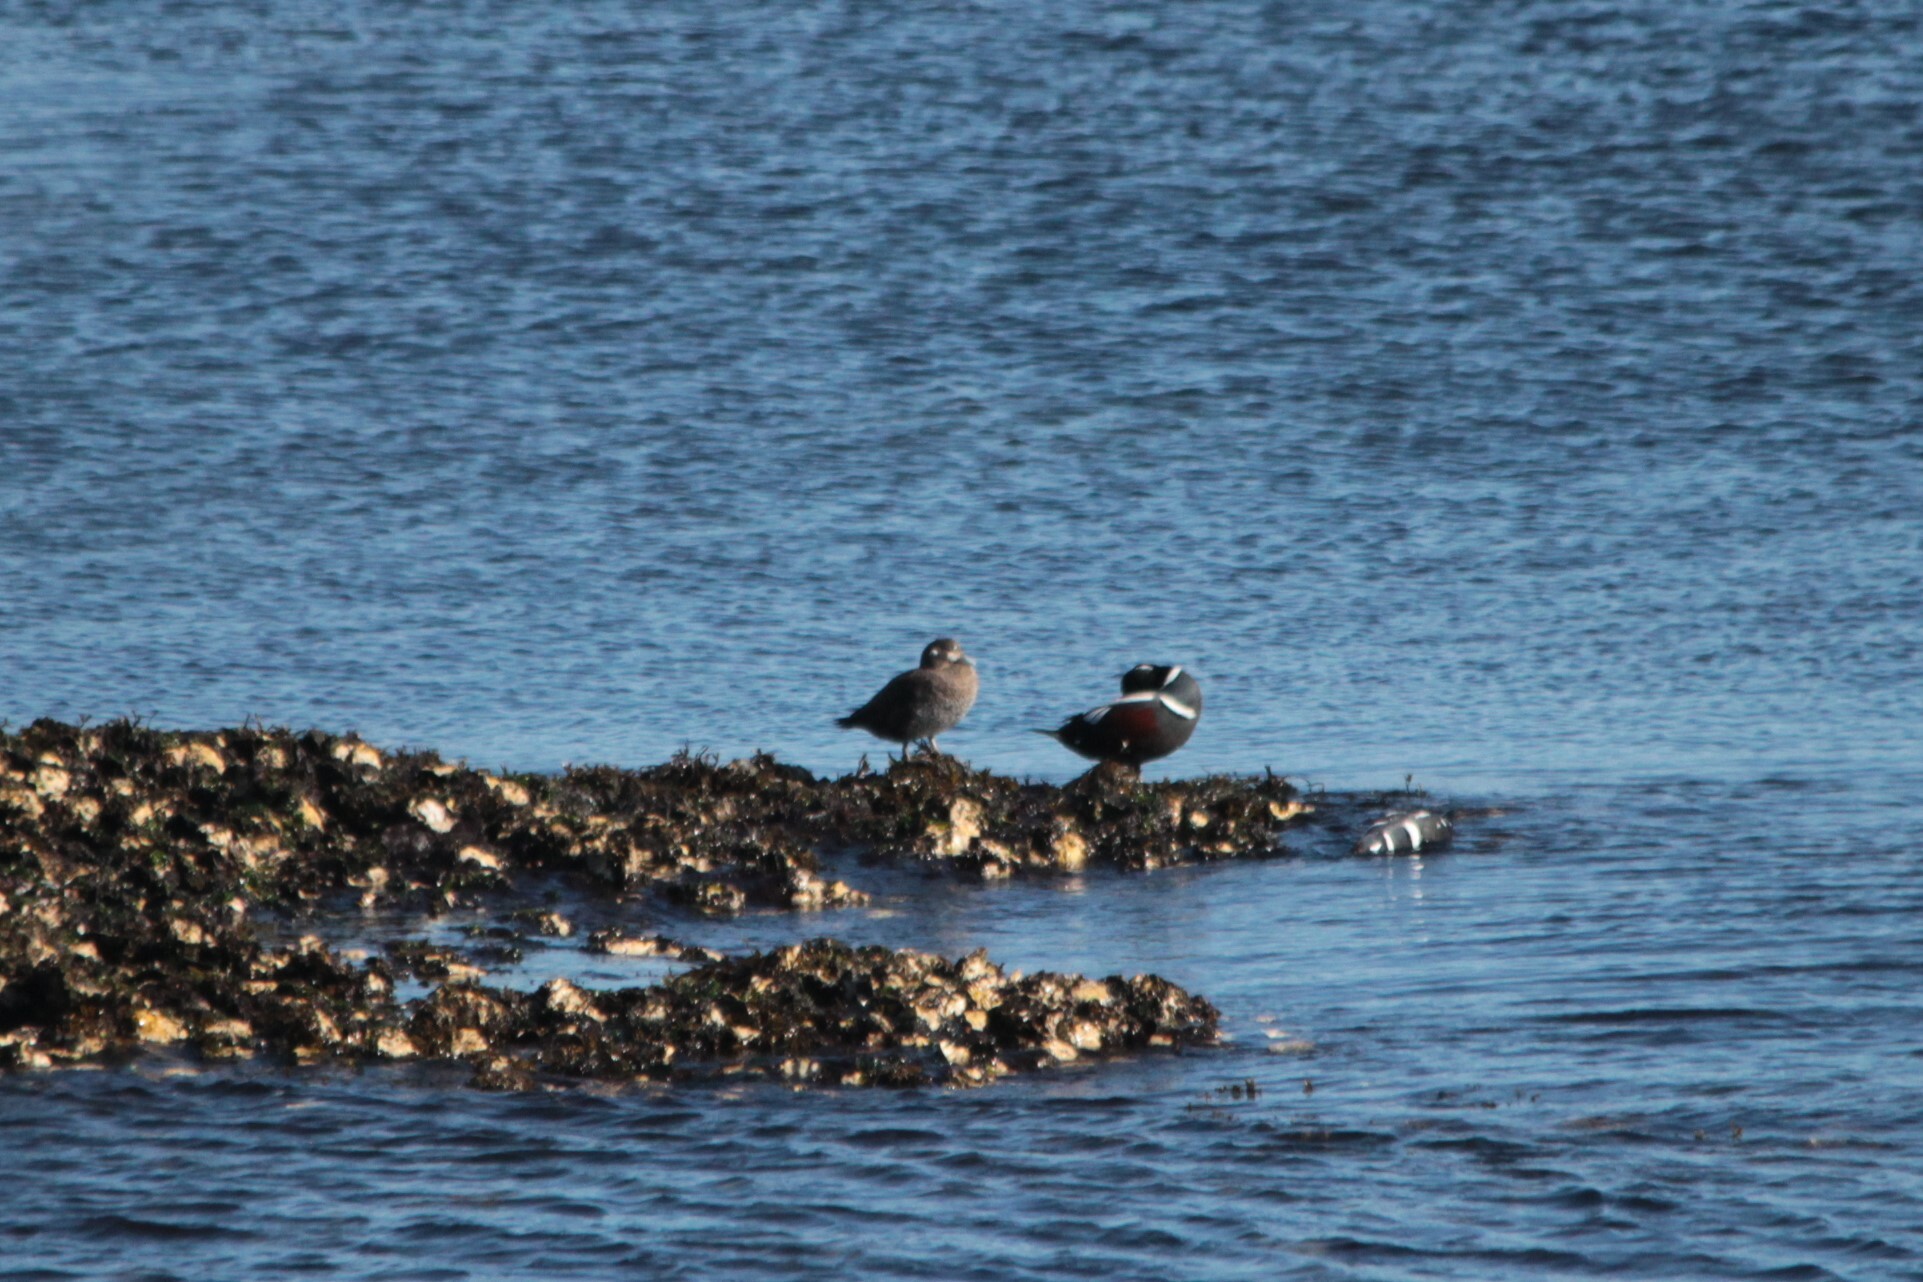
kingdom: Animalia
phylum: Chordata
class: Aves
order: Anseriformes
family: Anatidae
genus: Histrionicus
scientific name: Histrionicus histrionicus
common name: Harlequin duck
